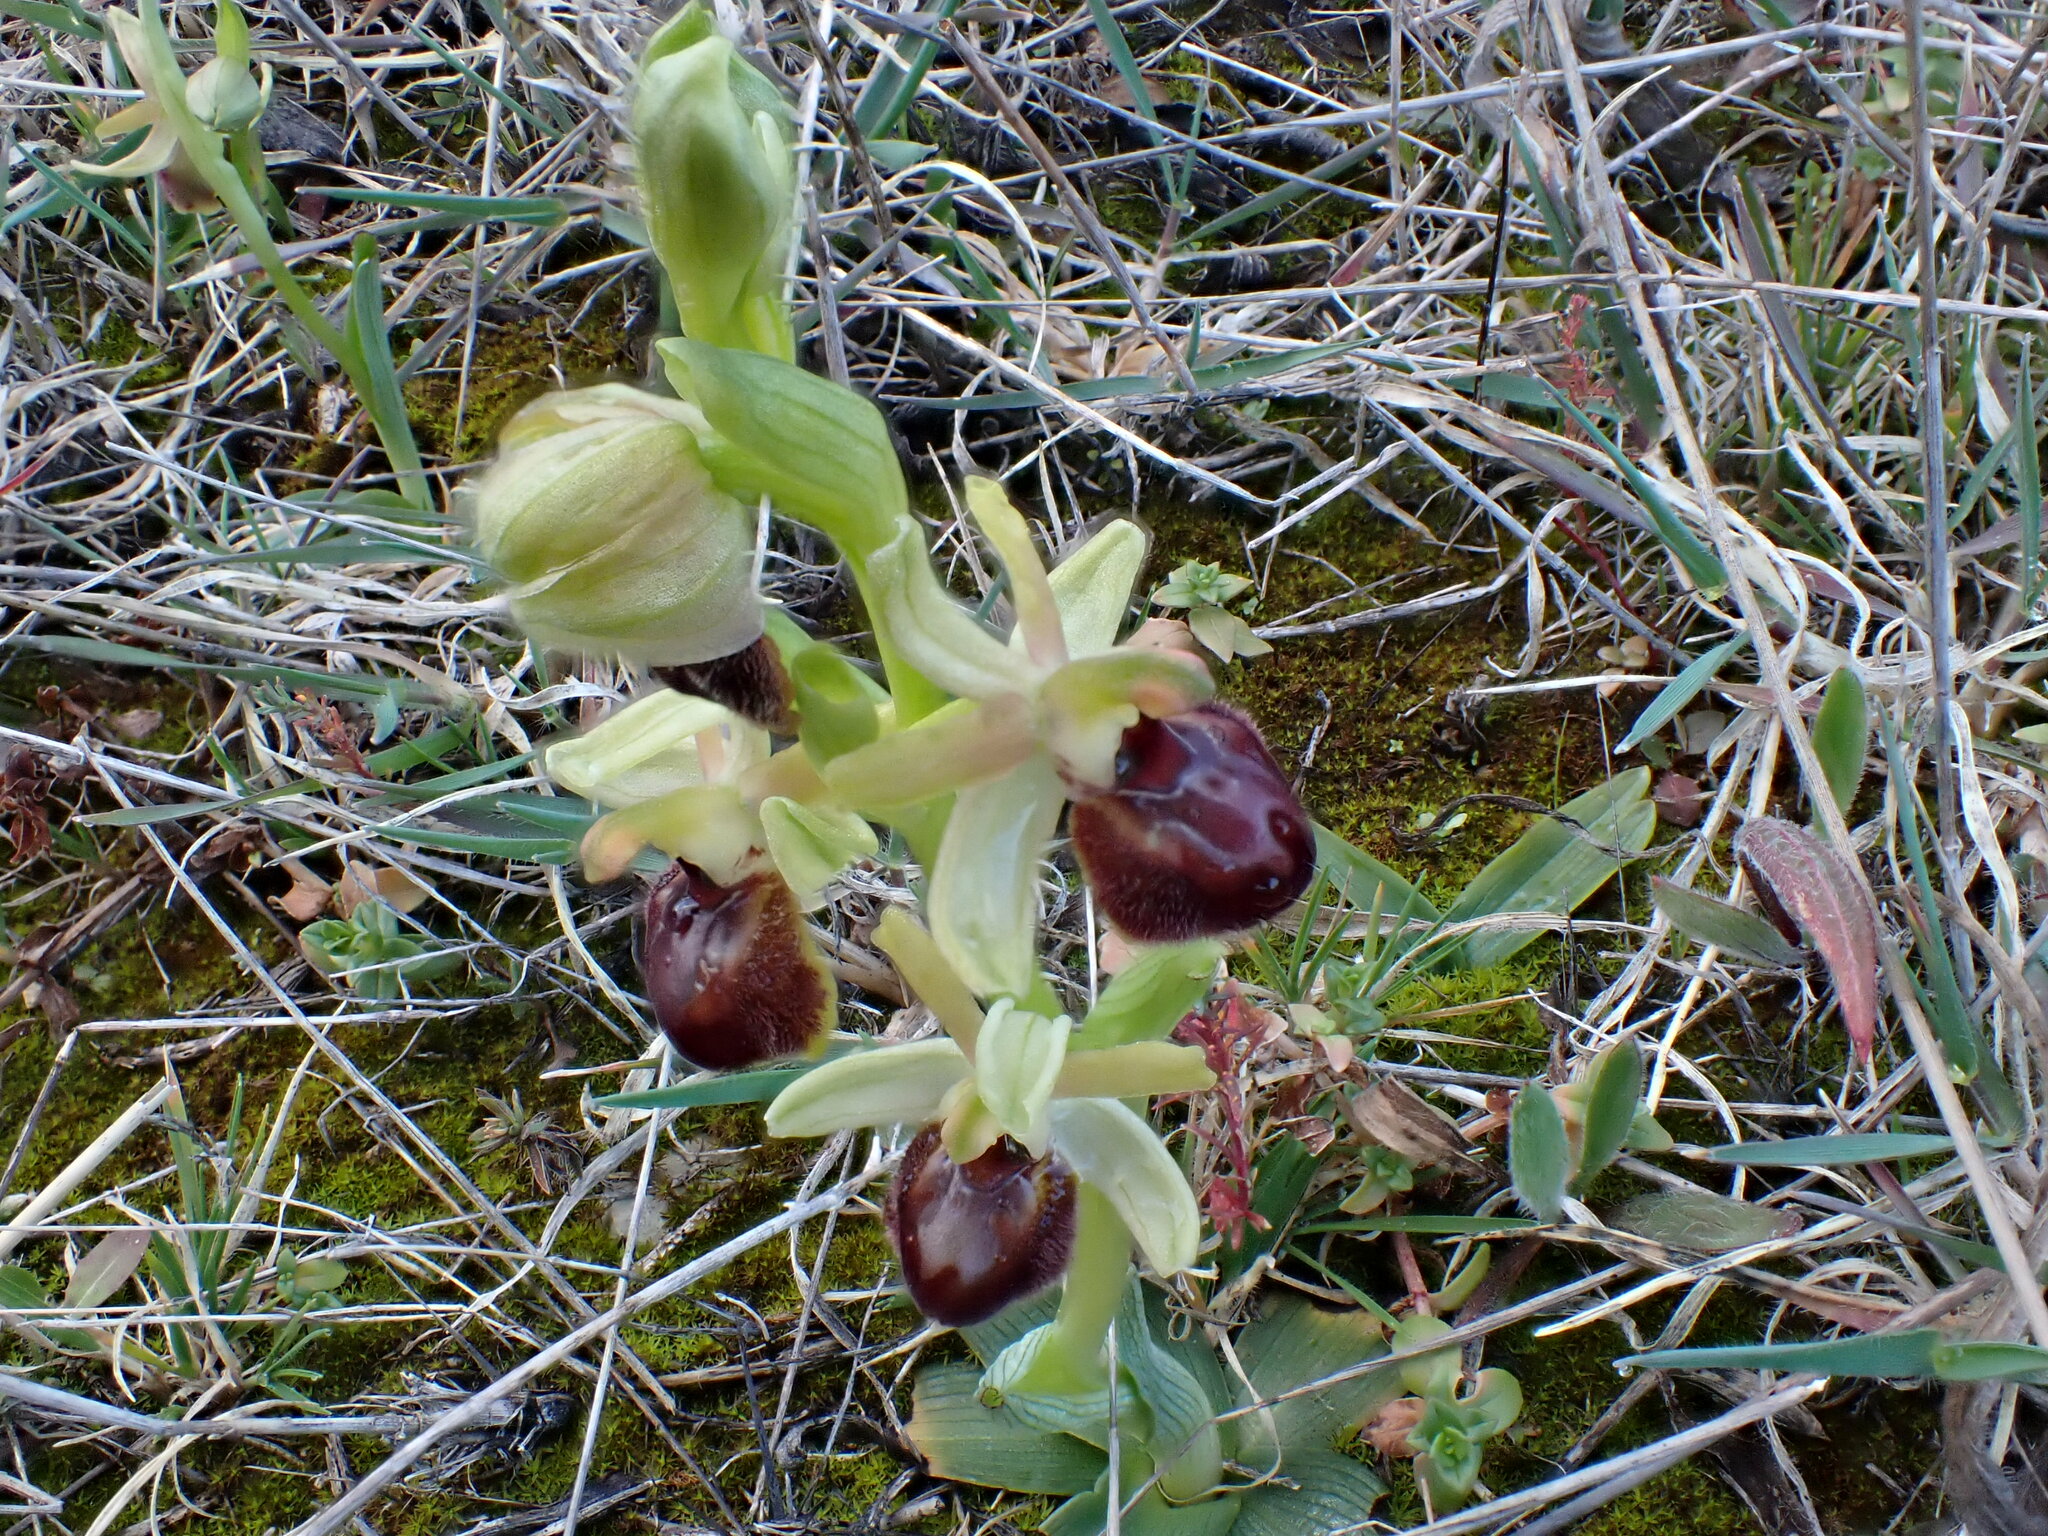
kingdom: Plantae
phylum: Tracheophyta
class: Liliopsida
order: Asparagales
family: Orchidaceae
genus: Ophrys
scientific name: Ophrys arachnitiformis
